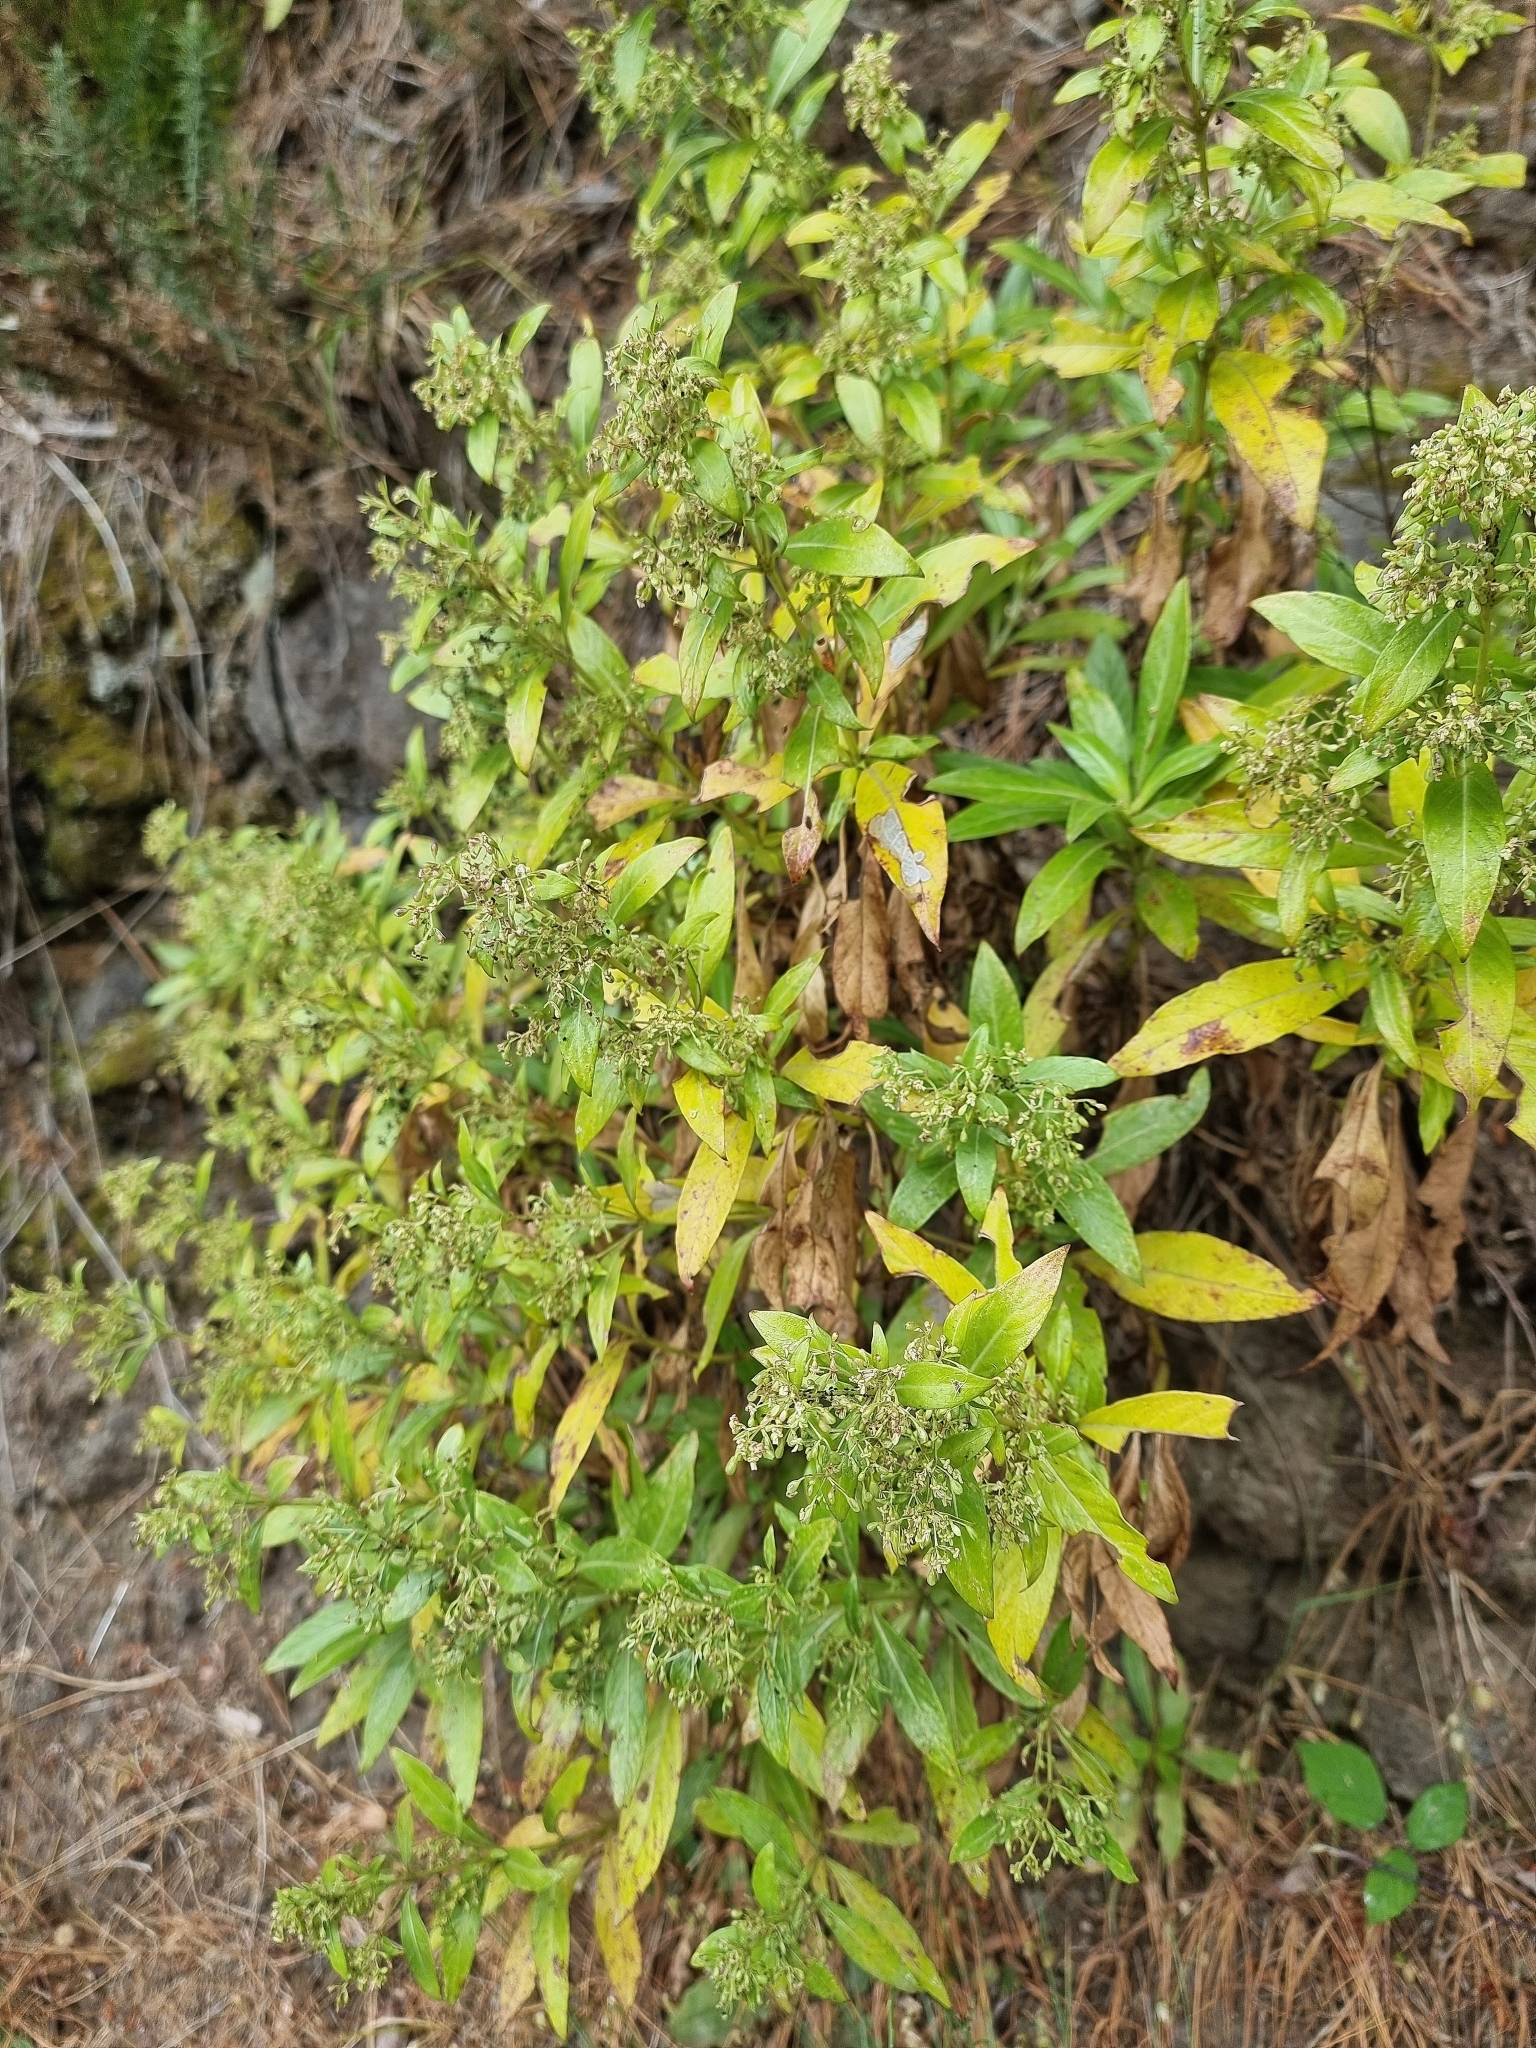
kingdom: Plantae
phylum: Tracheophyta
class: Magnoliopsida
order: Gentianales
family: Rubiaceae
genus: Phyllis
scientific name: Phyllis nobla
